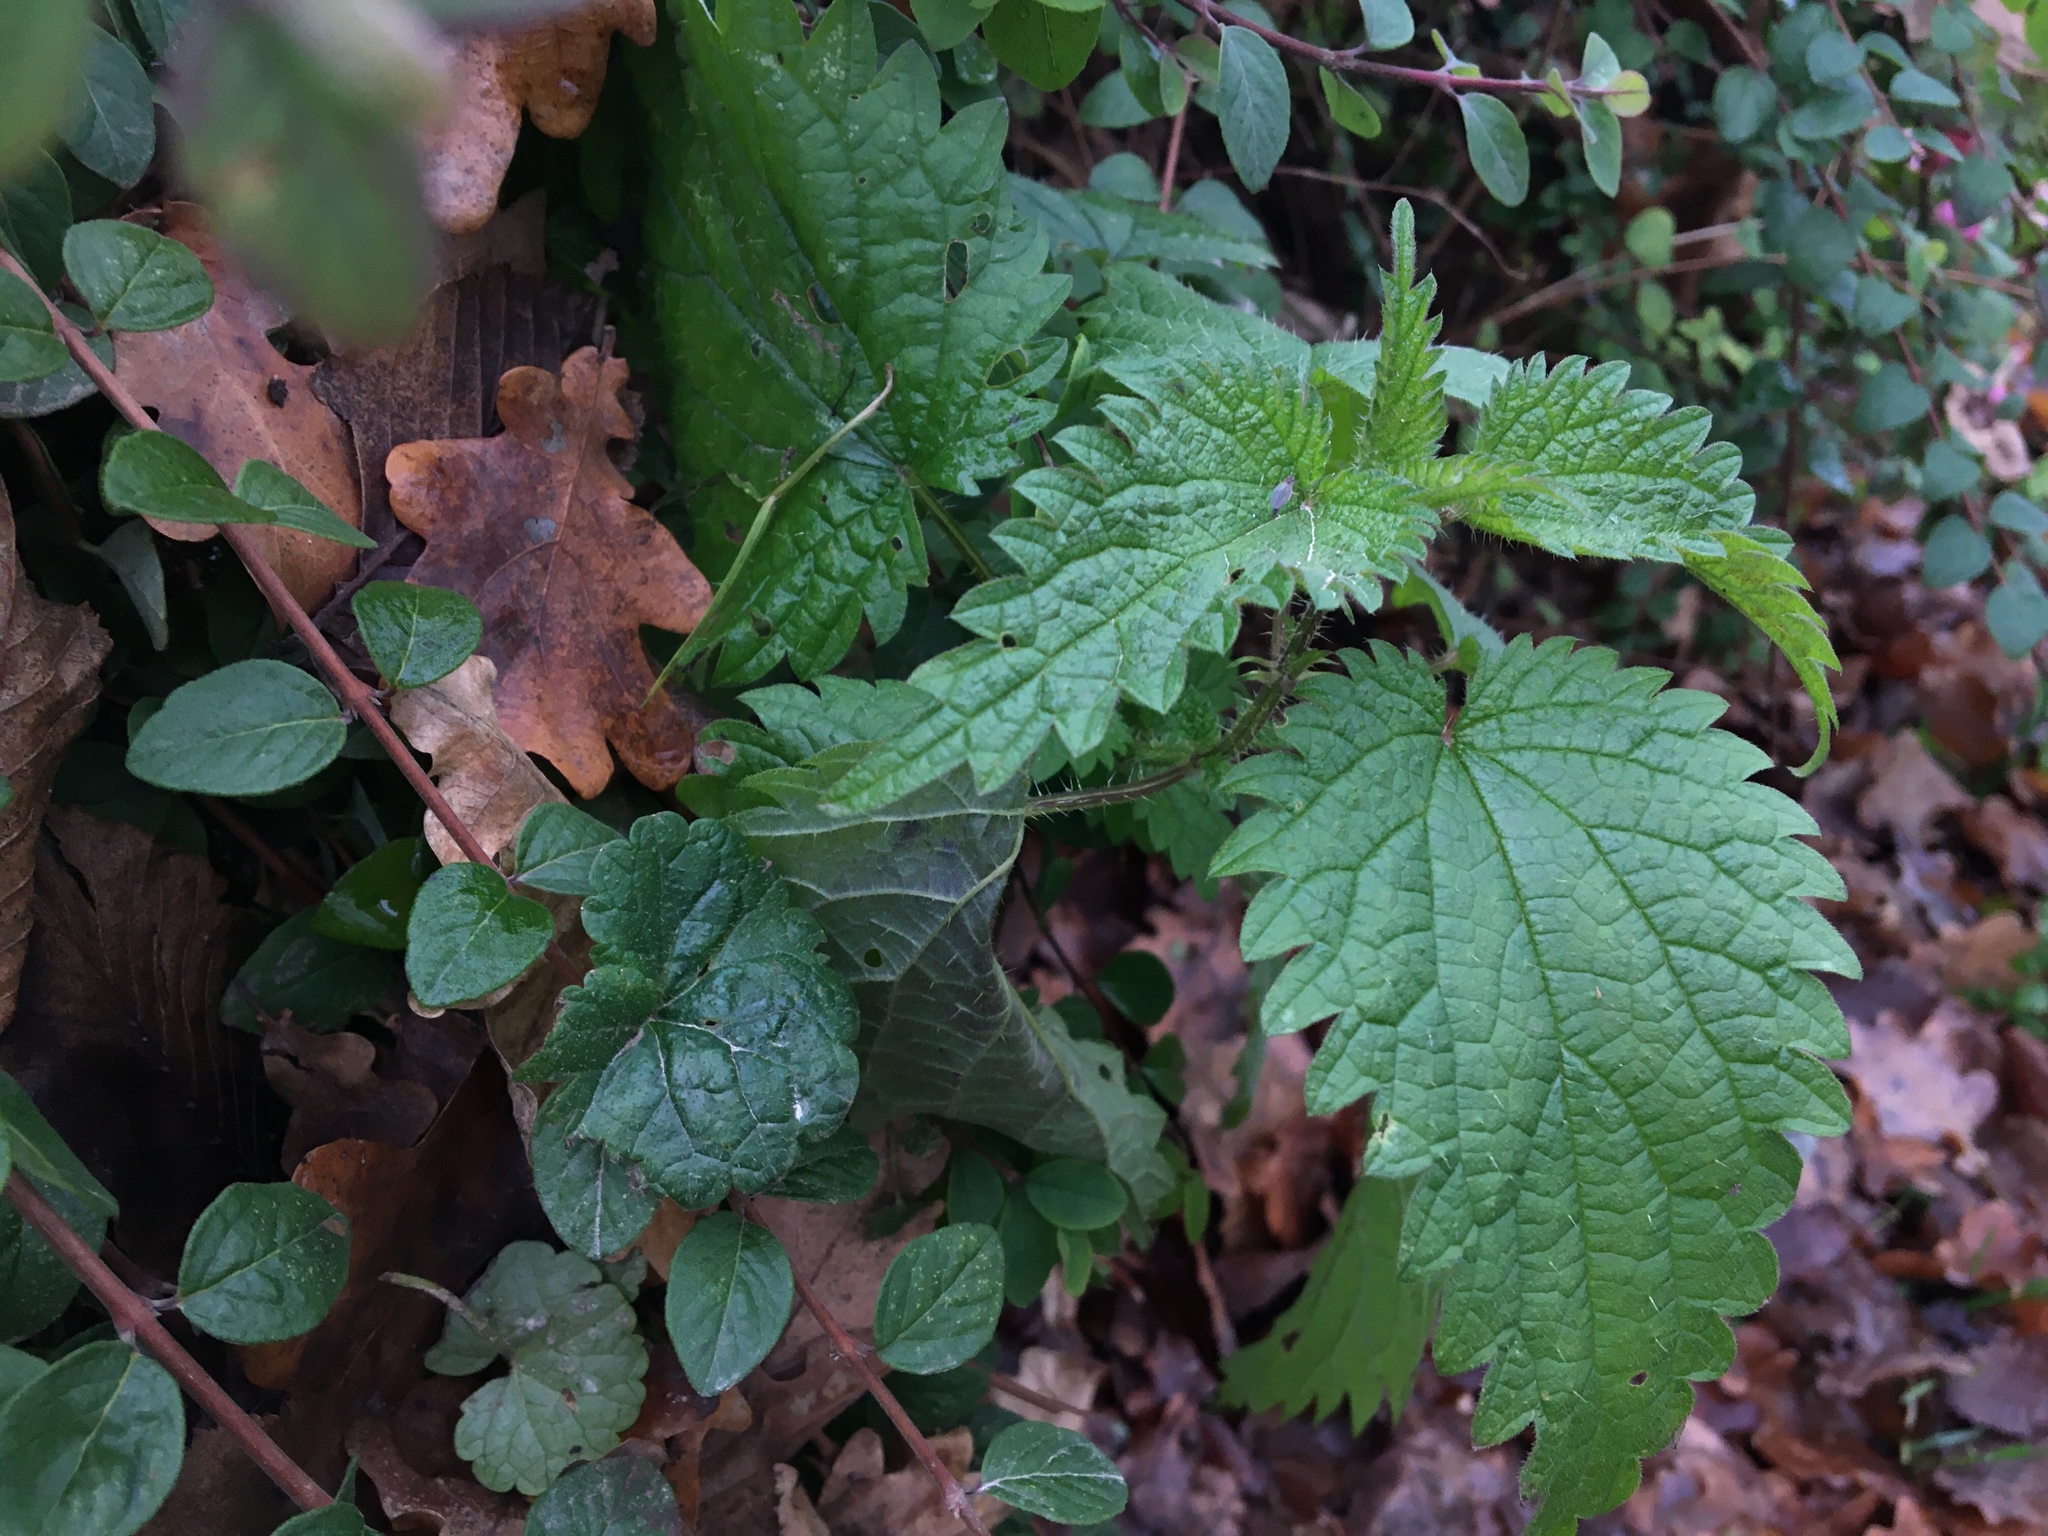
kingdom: Plantae
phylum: Tracheophyta
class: Magnoliopsida
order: Rosales
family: Urticaceae
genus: Urtica
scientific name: Urtica dioica
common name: Common nettle
